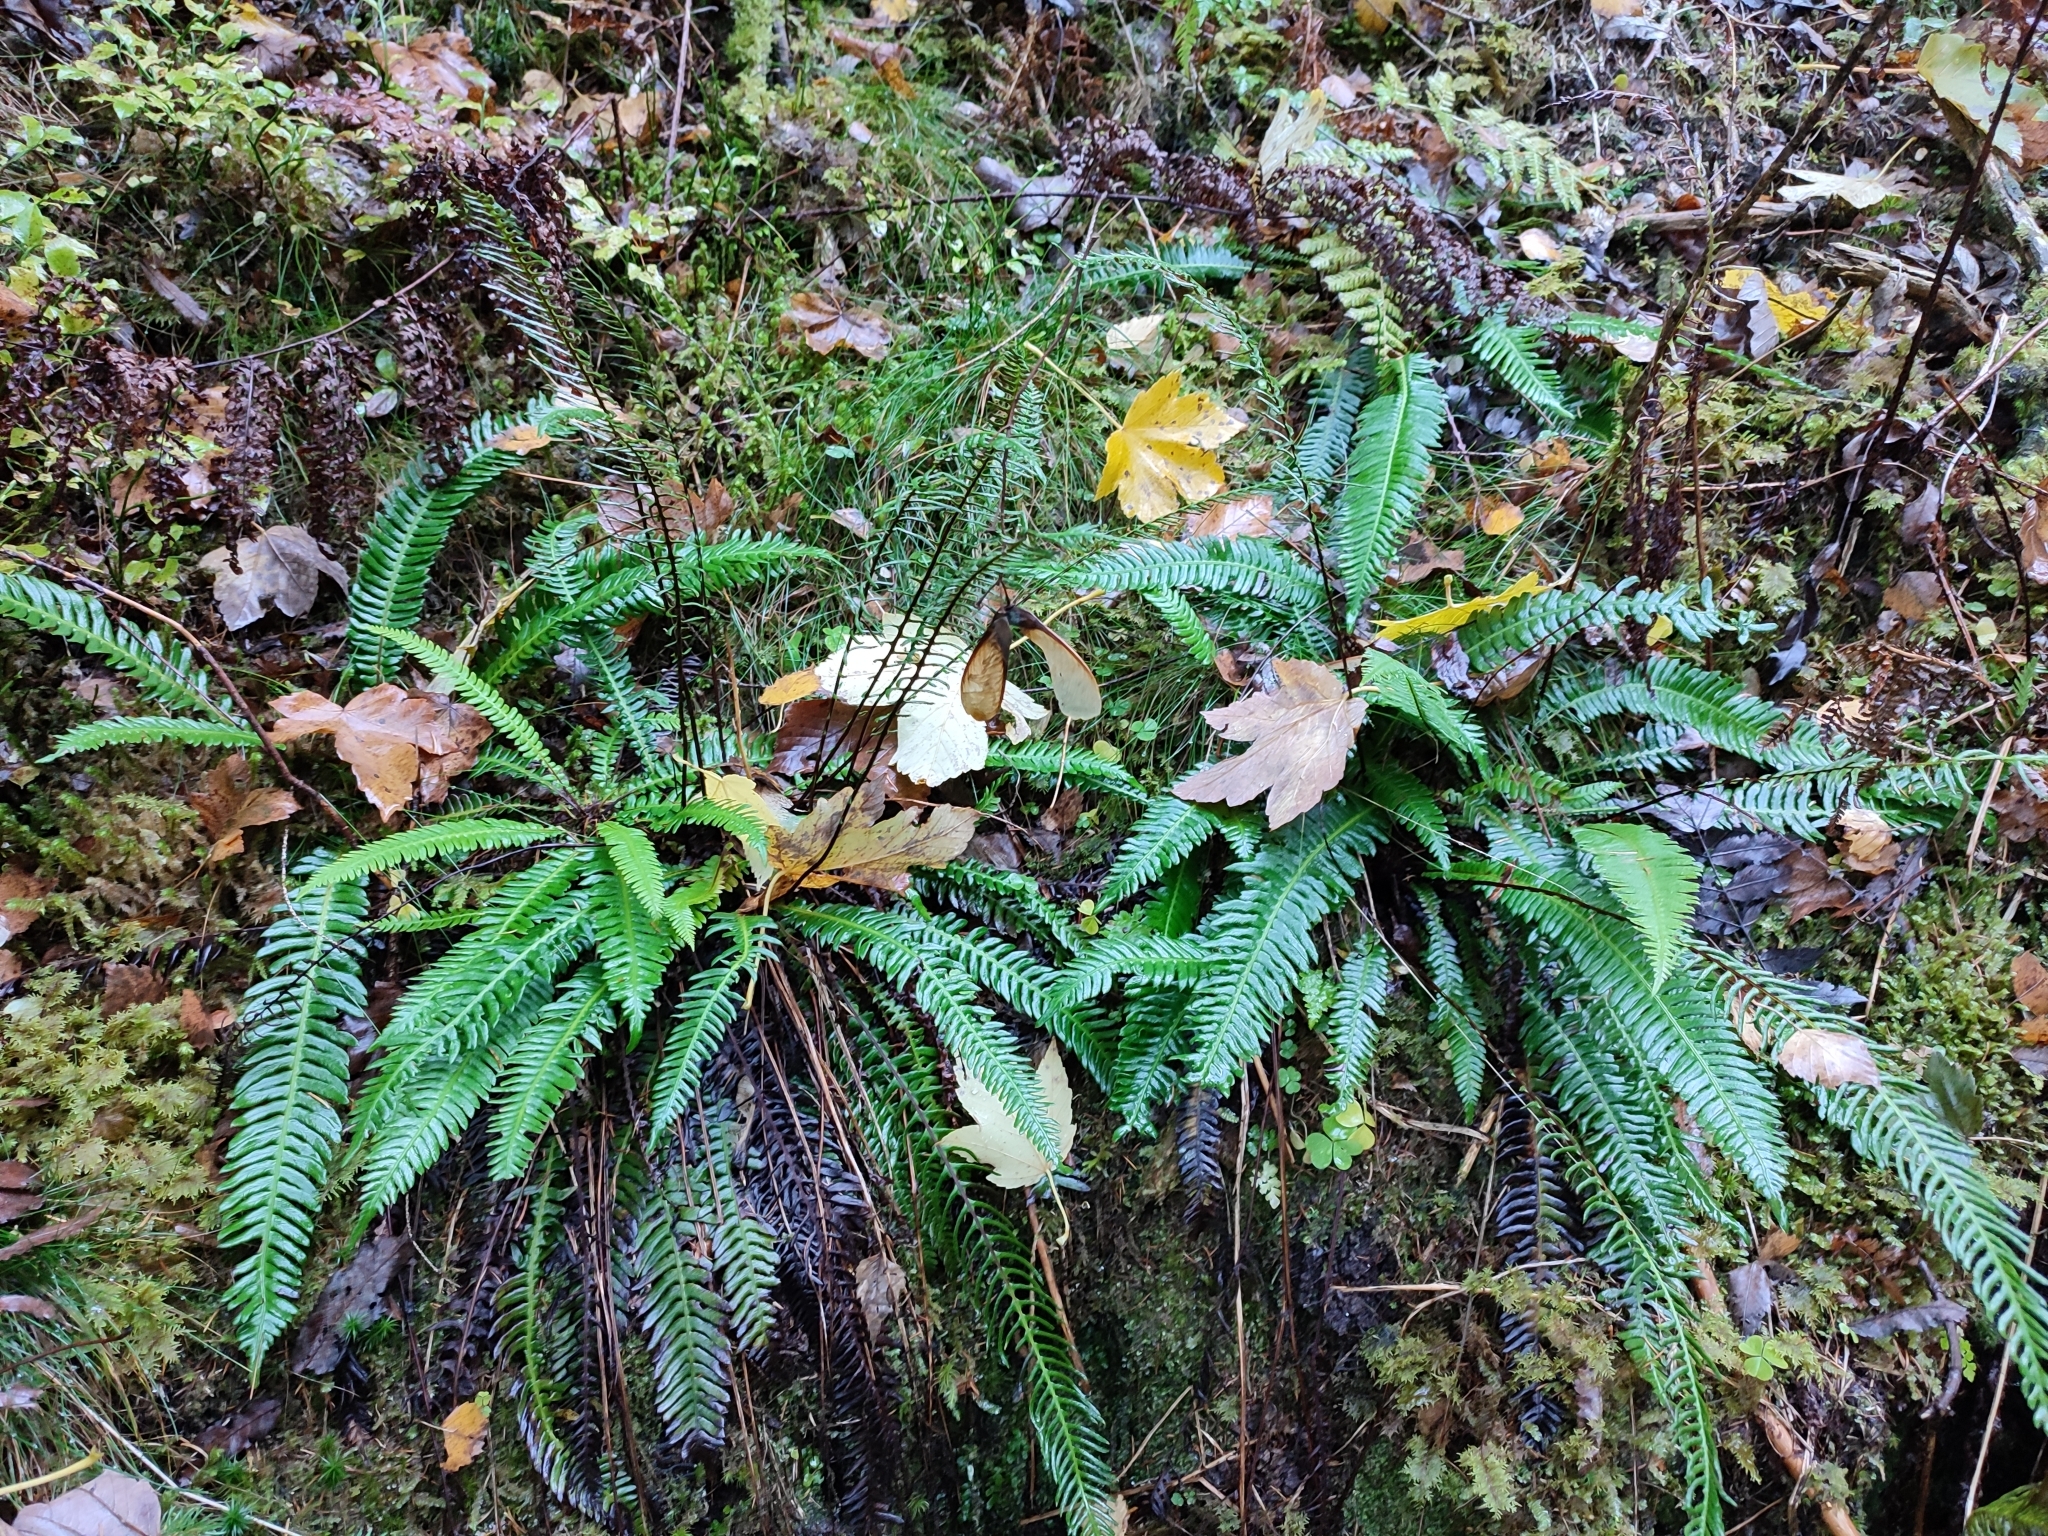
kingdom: Plantae
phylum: Tracheophyta
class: Polypodiopsida
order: Polypodiales
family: Blechnaceae
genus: Struthiopteris
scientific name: Struthiopteris spicant
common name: Deer fern
